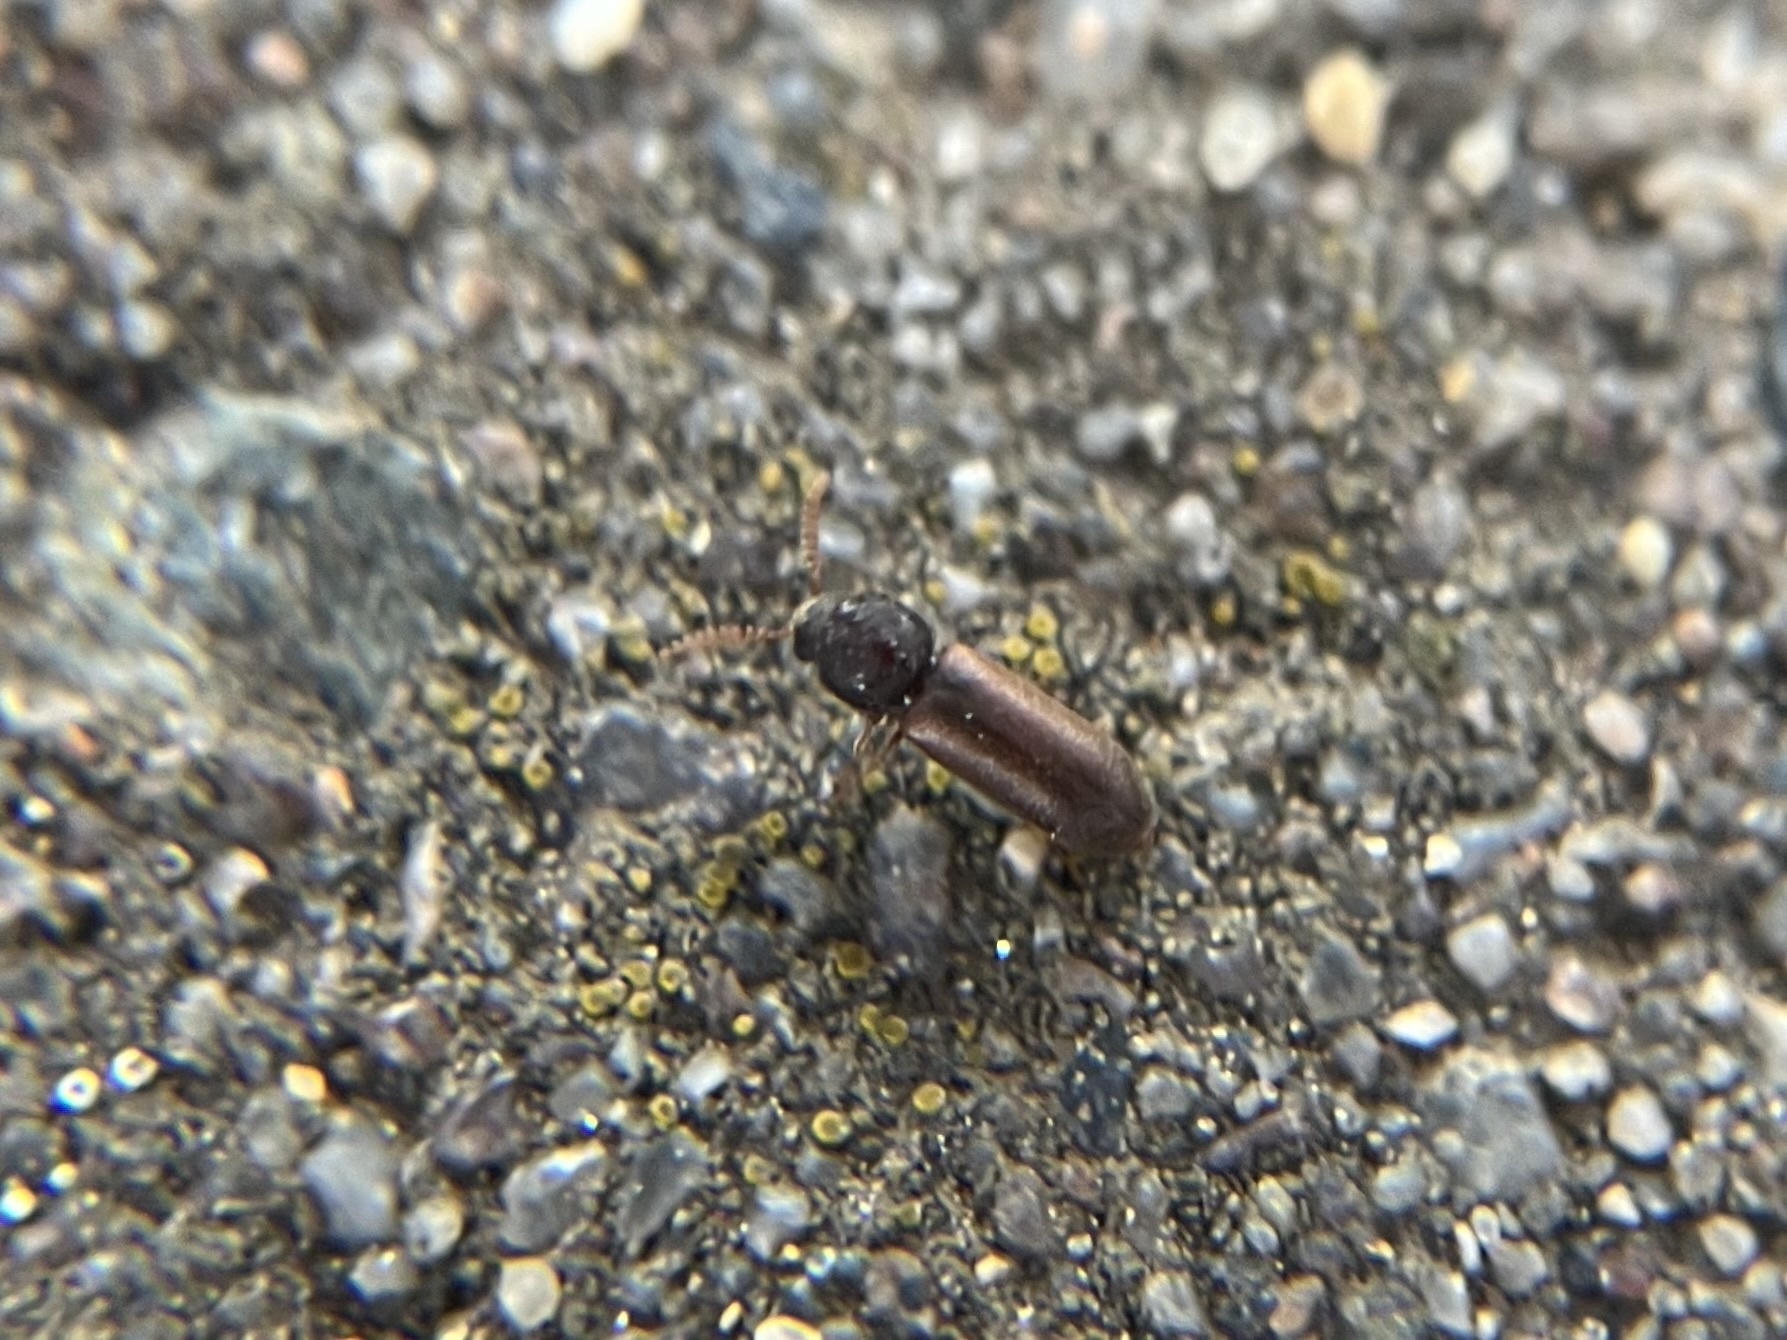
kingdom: Animalia
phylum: Arthropoda
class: Insecta
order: Coleoptera
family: Anobiidae
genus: Ptilinus
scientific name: Ptilinus pectinicornis
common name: Fan-bearing wood-borer
